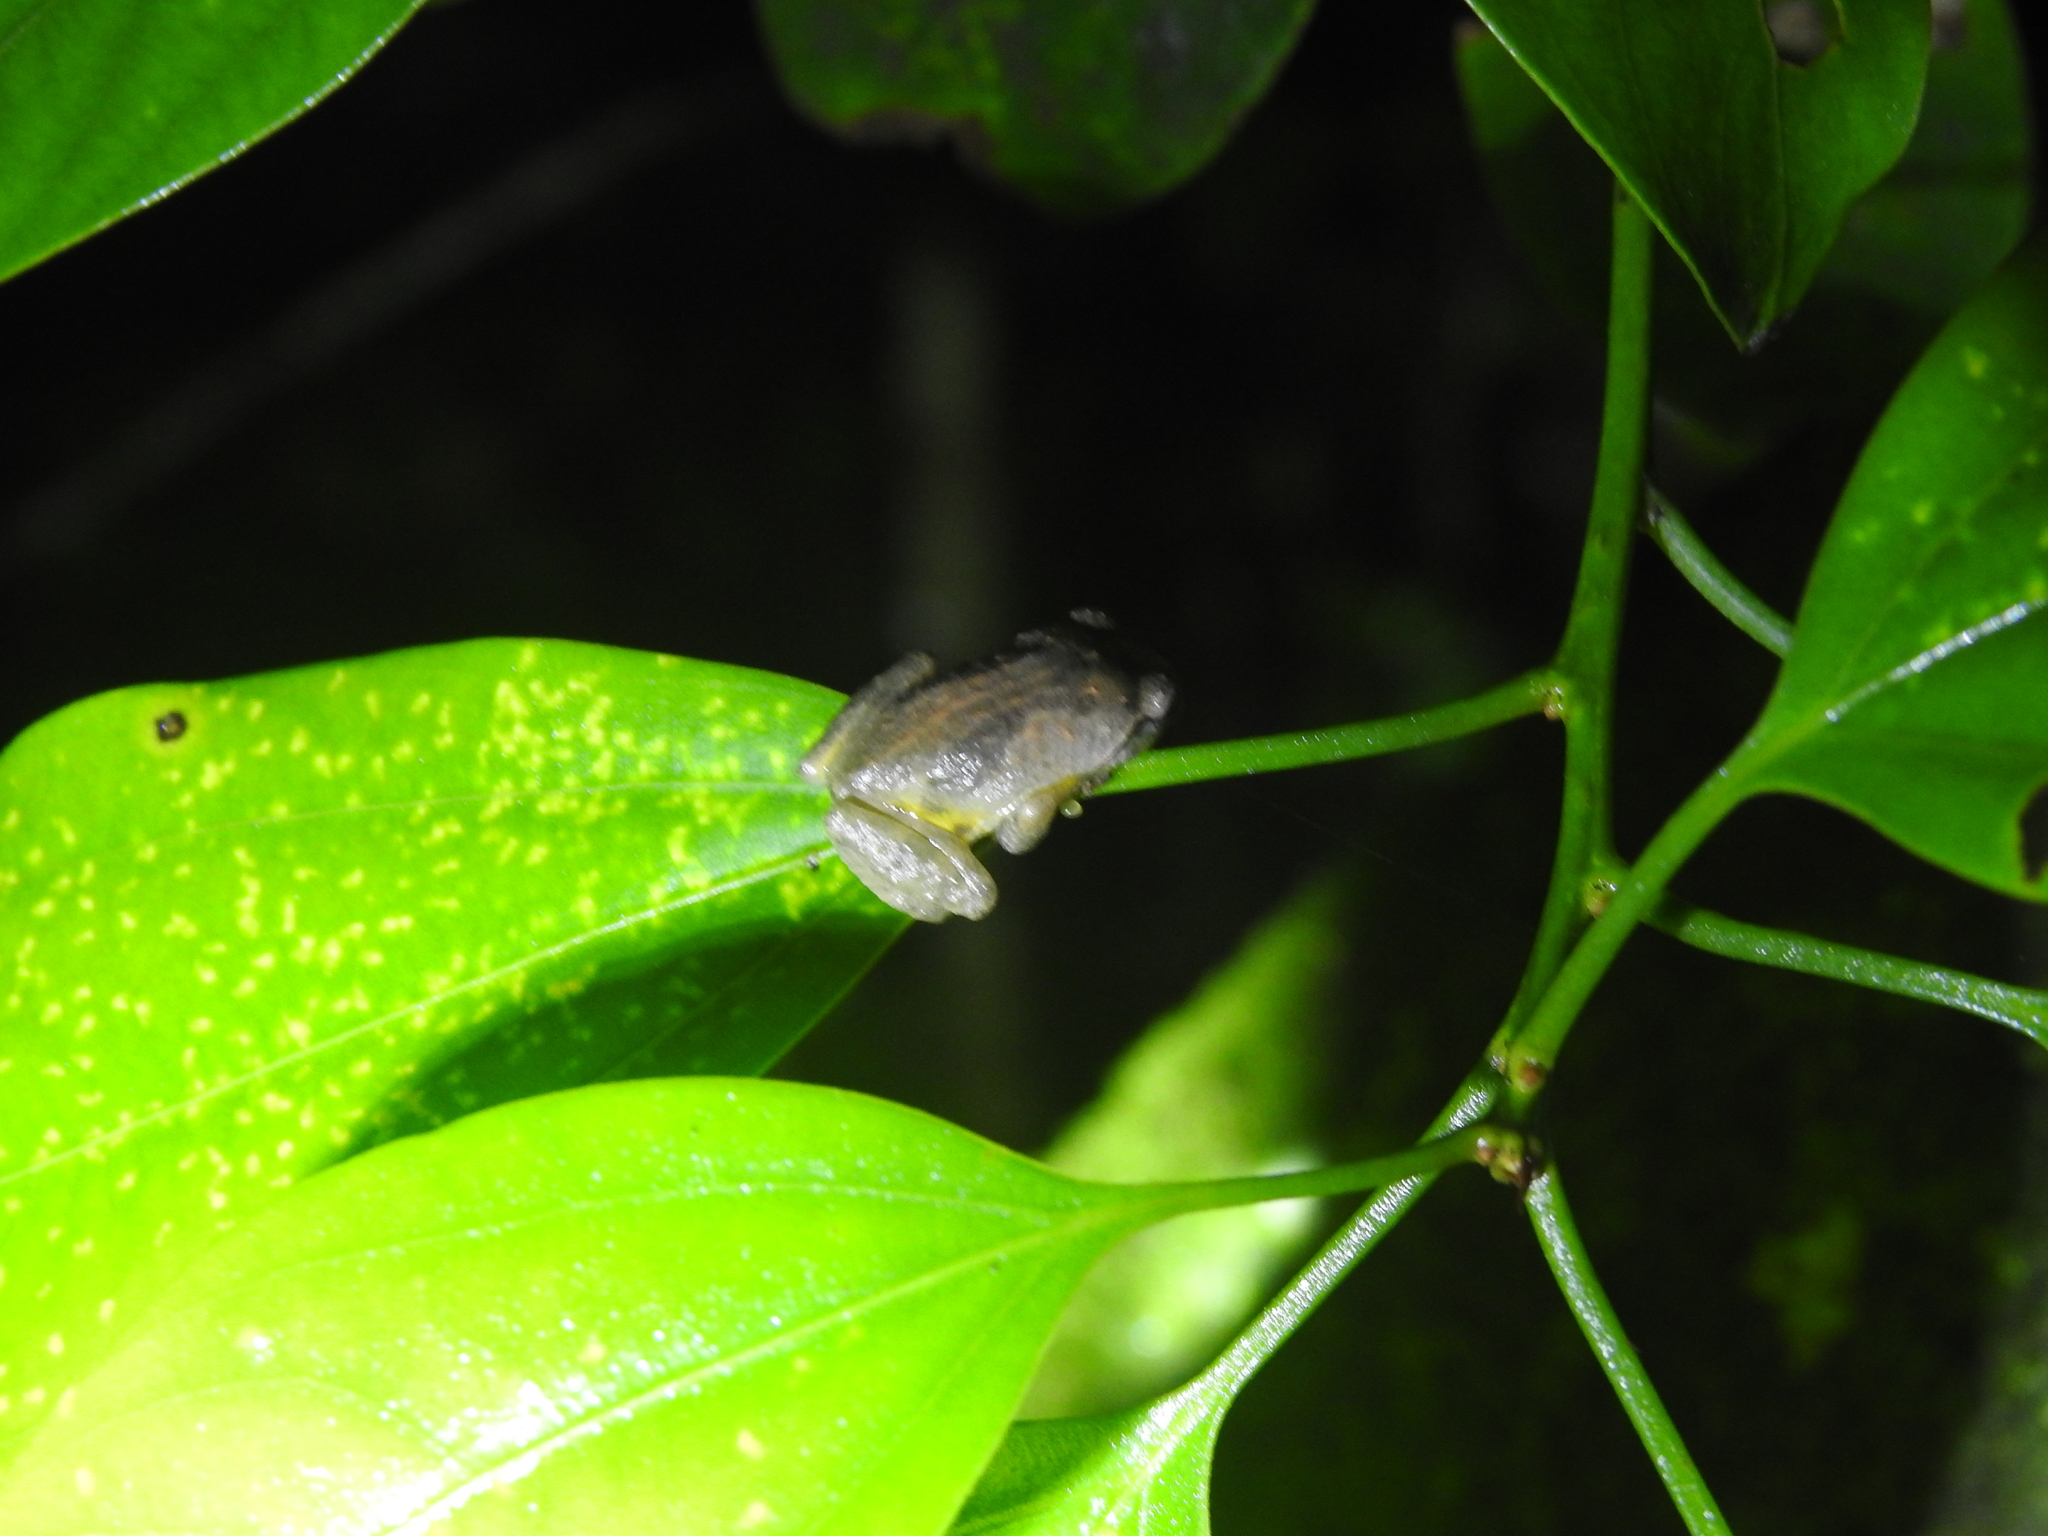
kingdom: Animalia
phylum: Chordata
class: Amphibia
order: Anura
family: Rhacophoridae
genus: Raorchestes
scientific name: Raorchestes dubois
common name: Koadaikanal bush frog
